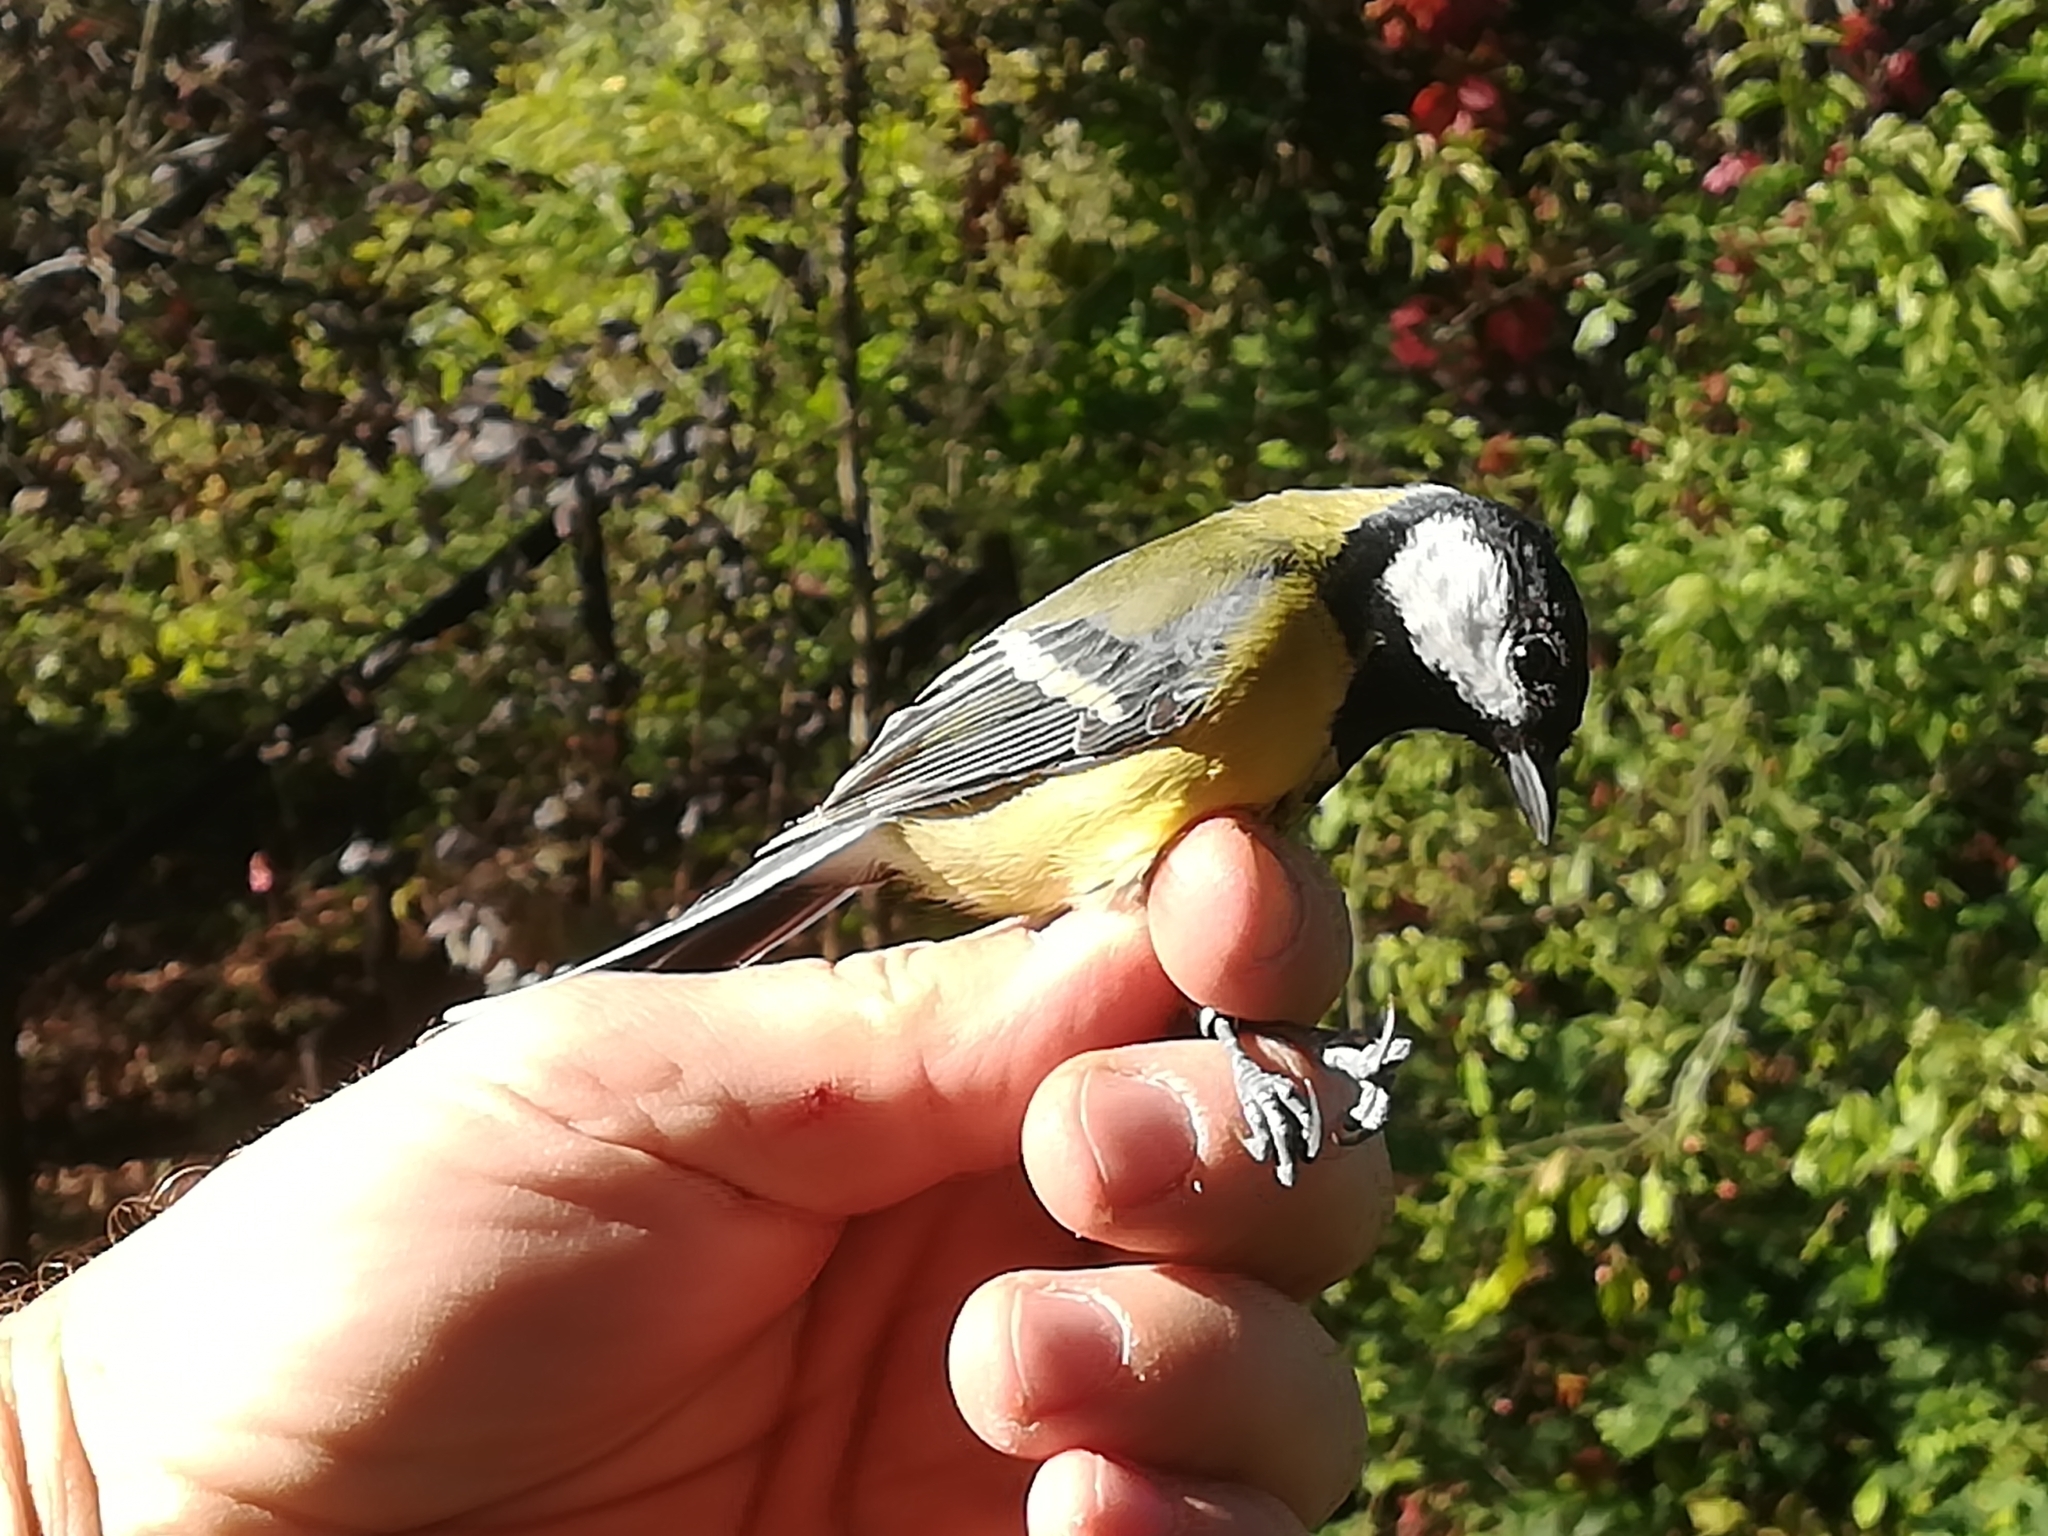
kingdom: Animalia
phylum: Chordata
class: Aves
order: Passeriformes
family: Paridae
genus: Parus
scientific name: Parus major
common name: Great tit
